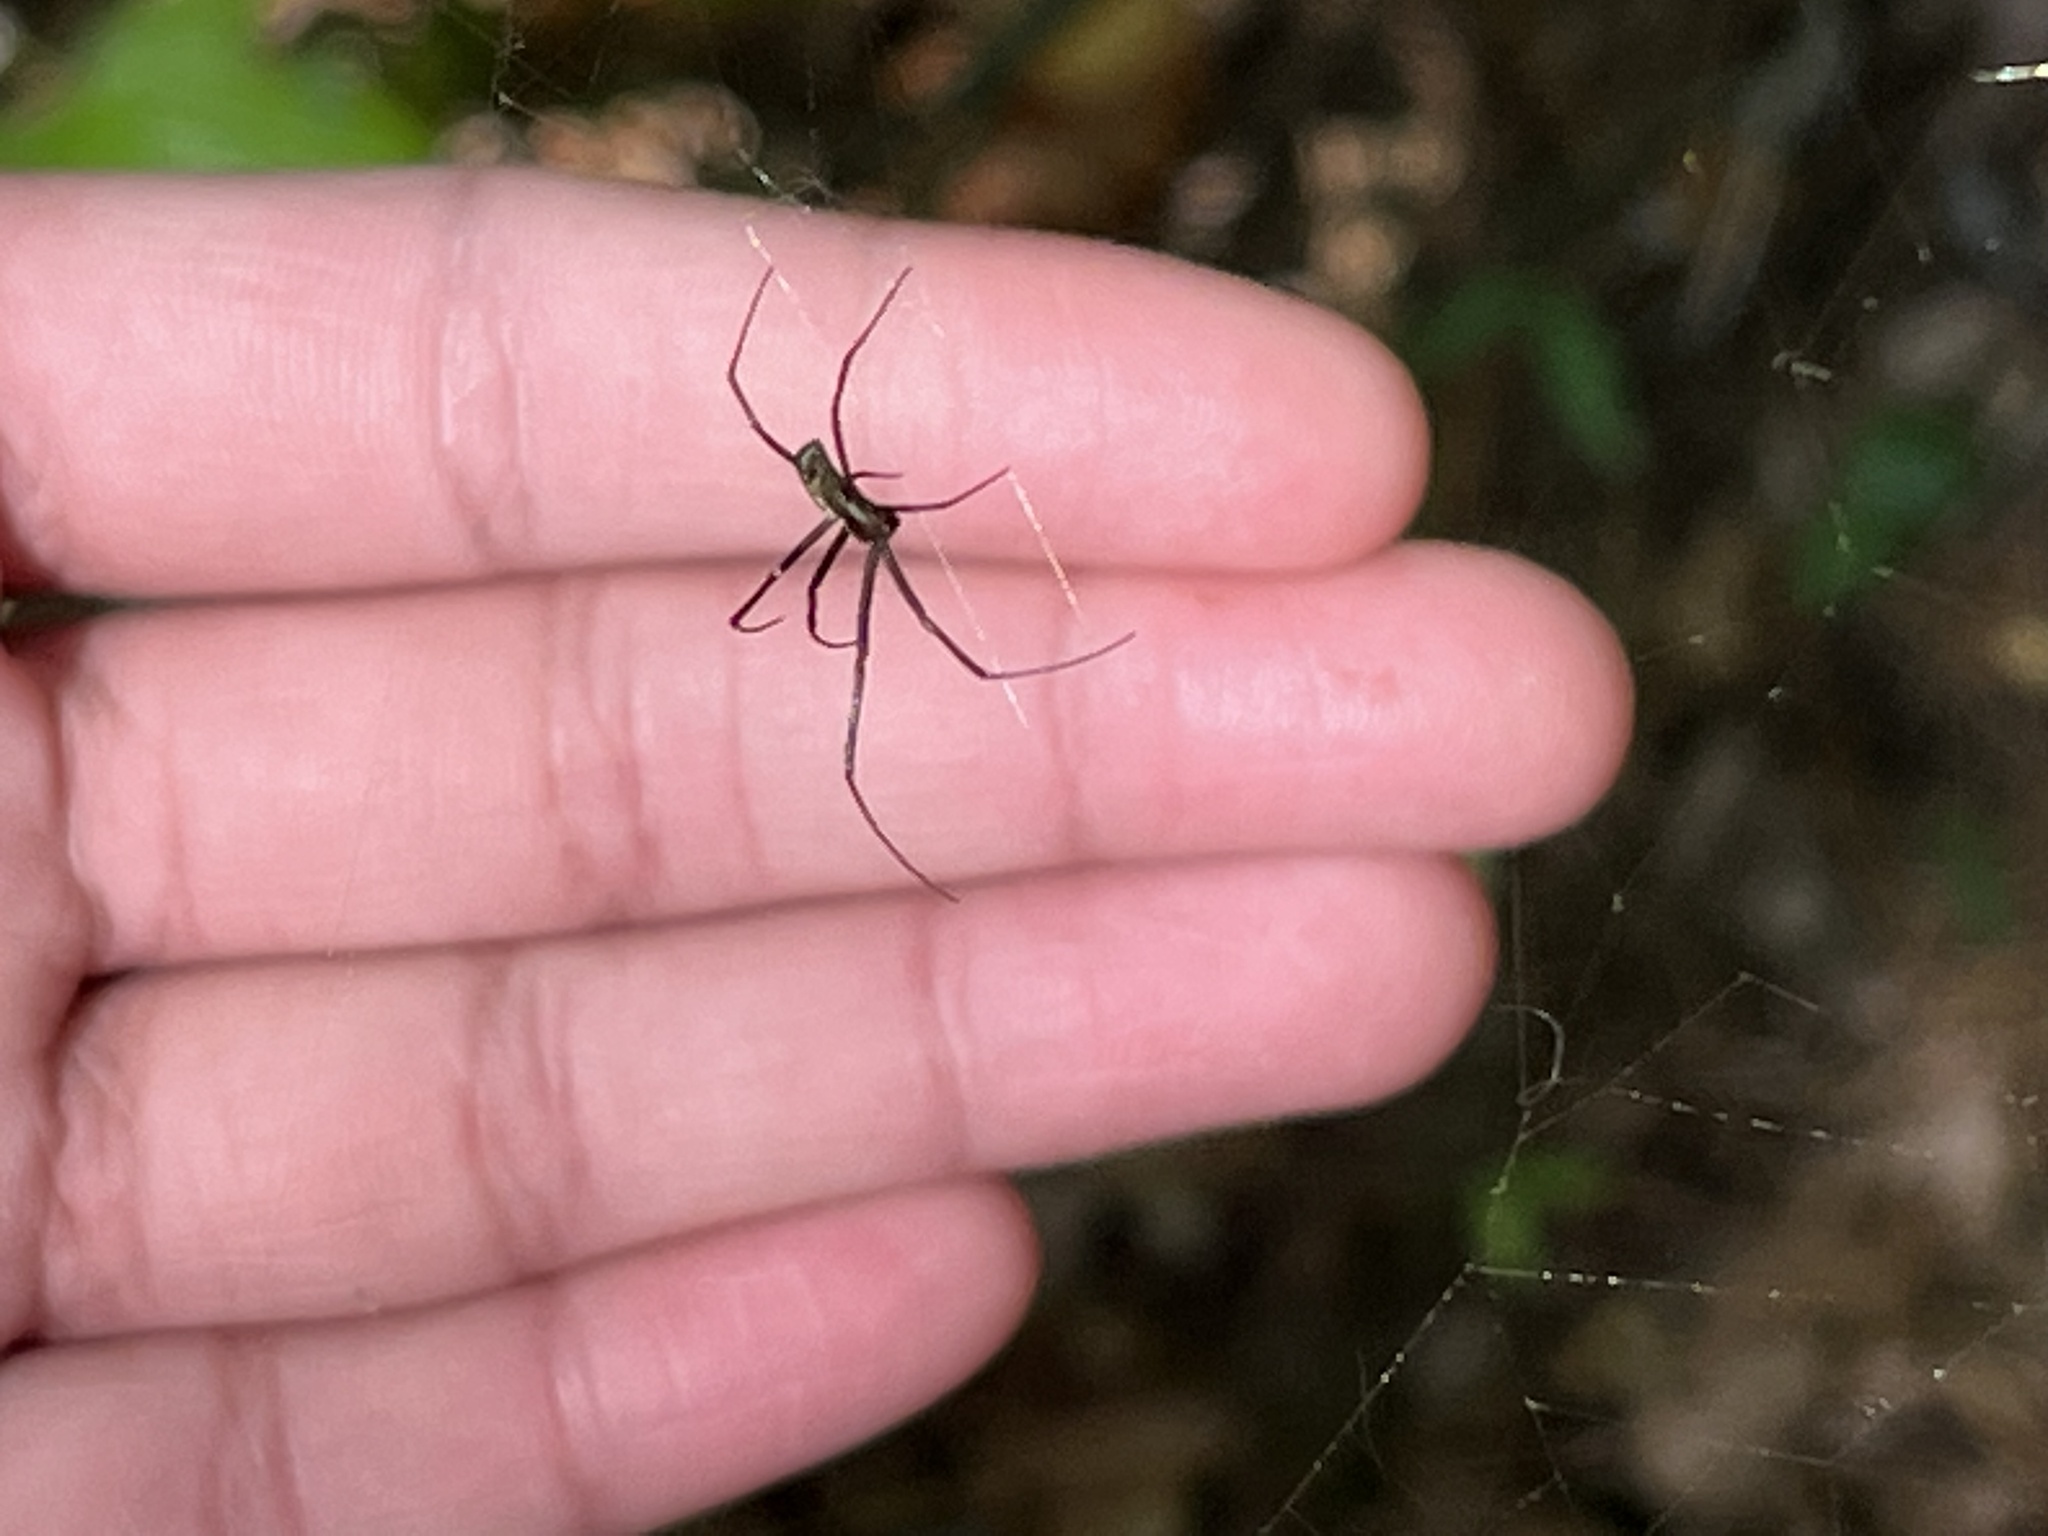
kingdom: Animalia
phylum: Arthropoda
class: Arachnida
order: Araneae
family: Araneidae
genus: Trichonephila
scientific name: Trichonephila clavata
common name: Jorō spider
